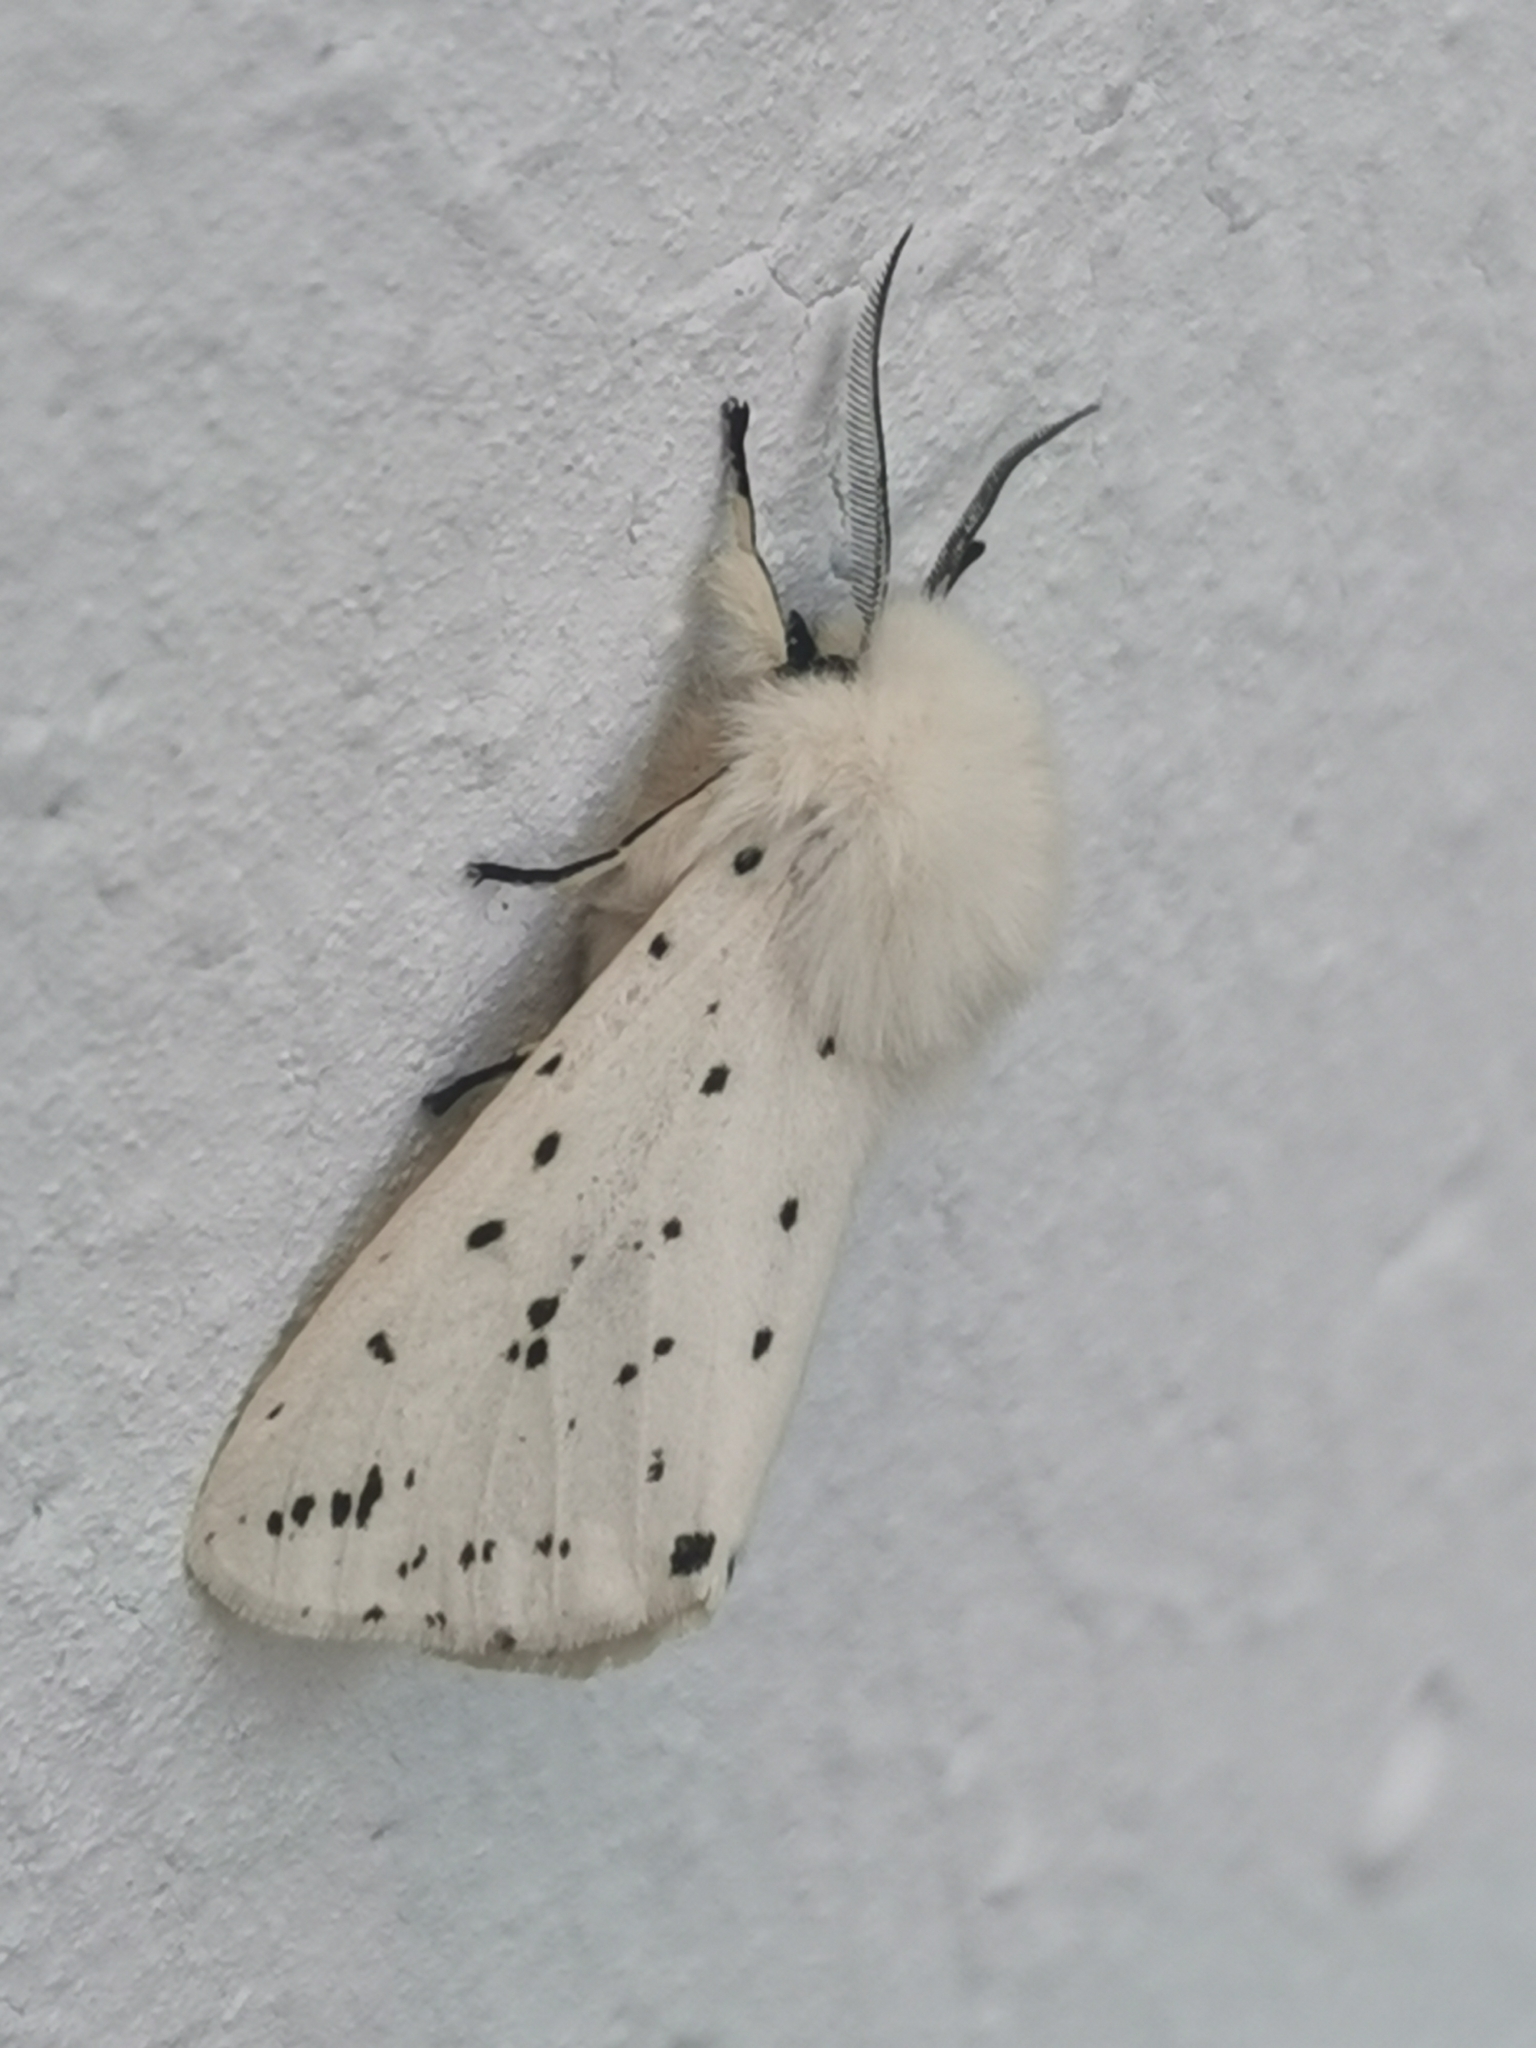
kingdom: Animalia
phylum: Arthropoda
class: Insecta
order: Lepidoptera
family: Erebidae
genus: Spilosoma
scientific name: Spilosoma lubricipeda
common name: White ermine
